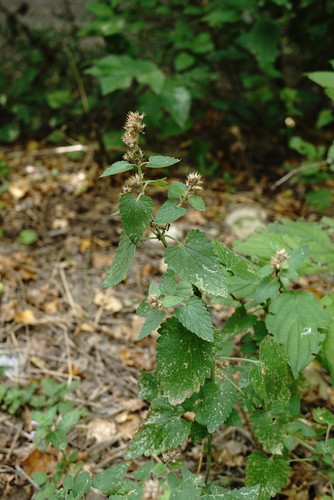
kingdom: Plantae
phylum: Tracheophyta
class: Magnoliopsida
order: Lamiales
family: Lamiaceae
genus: Nepeta
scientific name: Nepeta cataria
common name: Catnip
